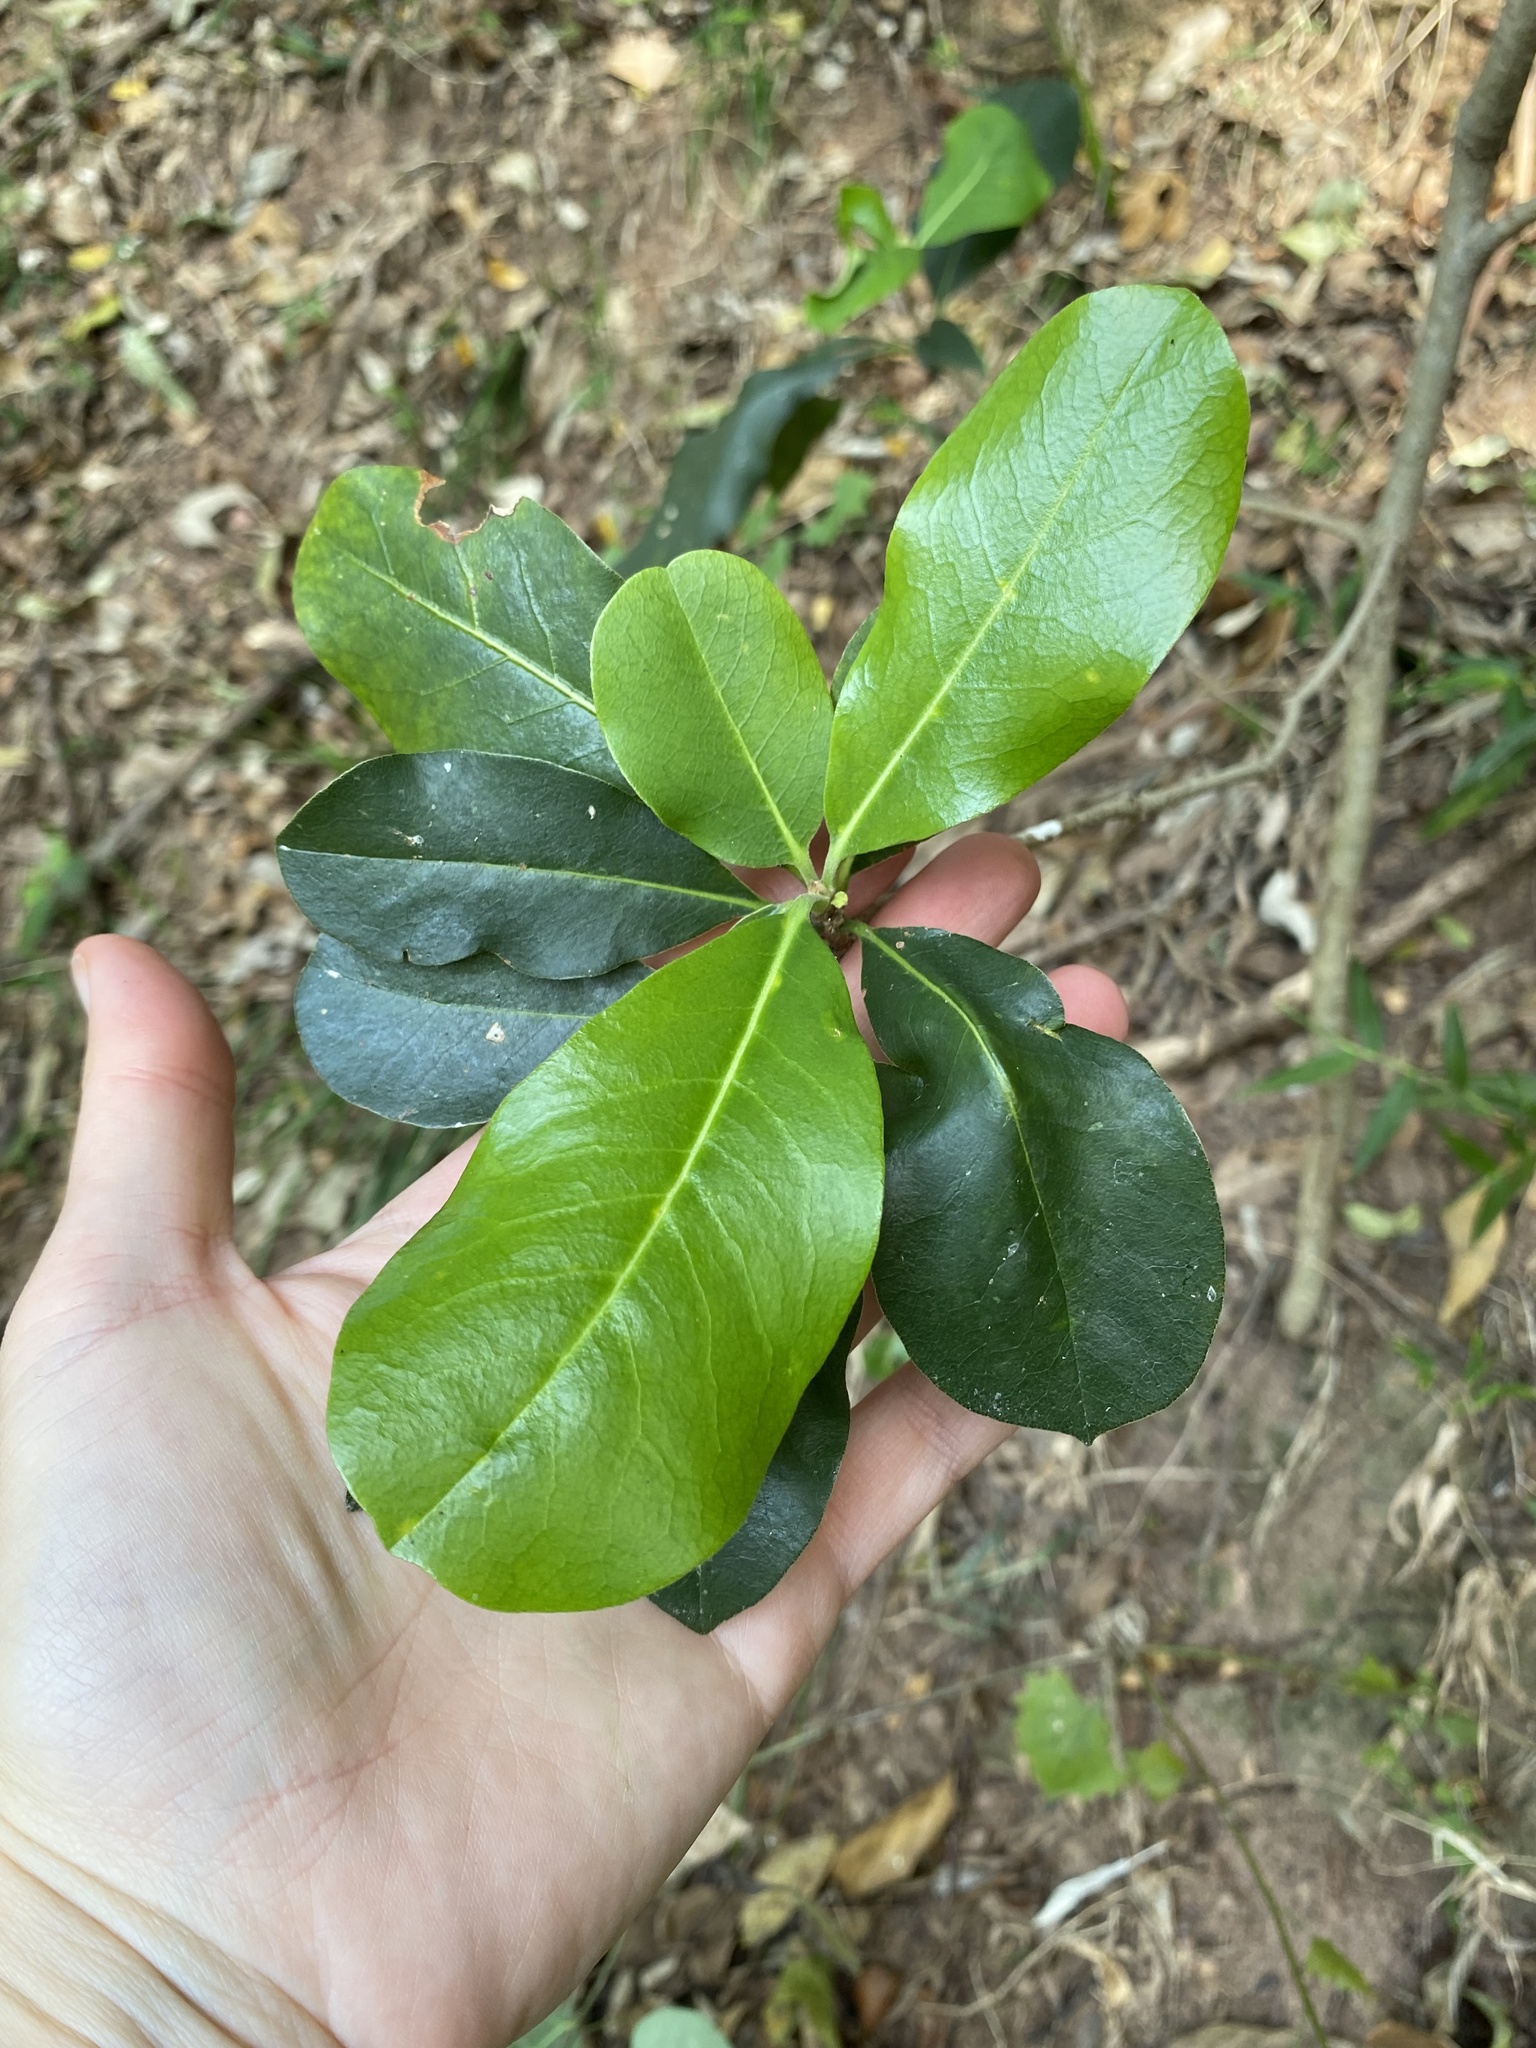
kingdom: Plantae
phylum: Tracheophyta
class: Magnoliopsida
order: Apiales
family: Pittosporaceae
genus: Pittosporum
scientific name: Pittosporum viridiflorum
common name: Cape cheesewood
